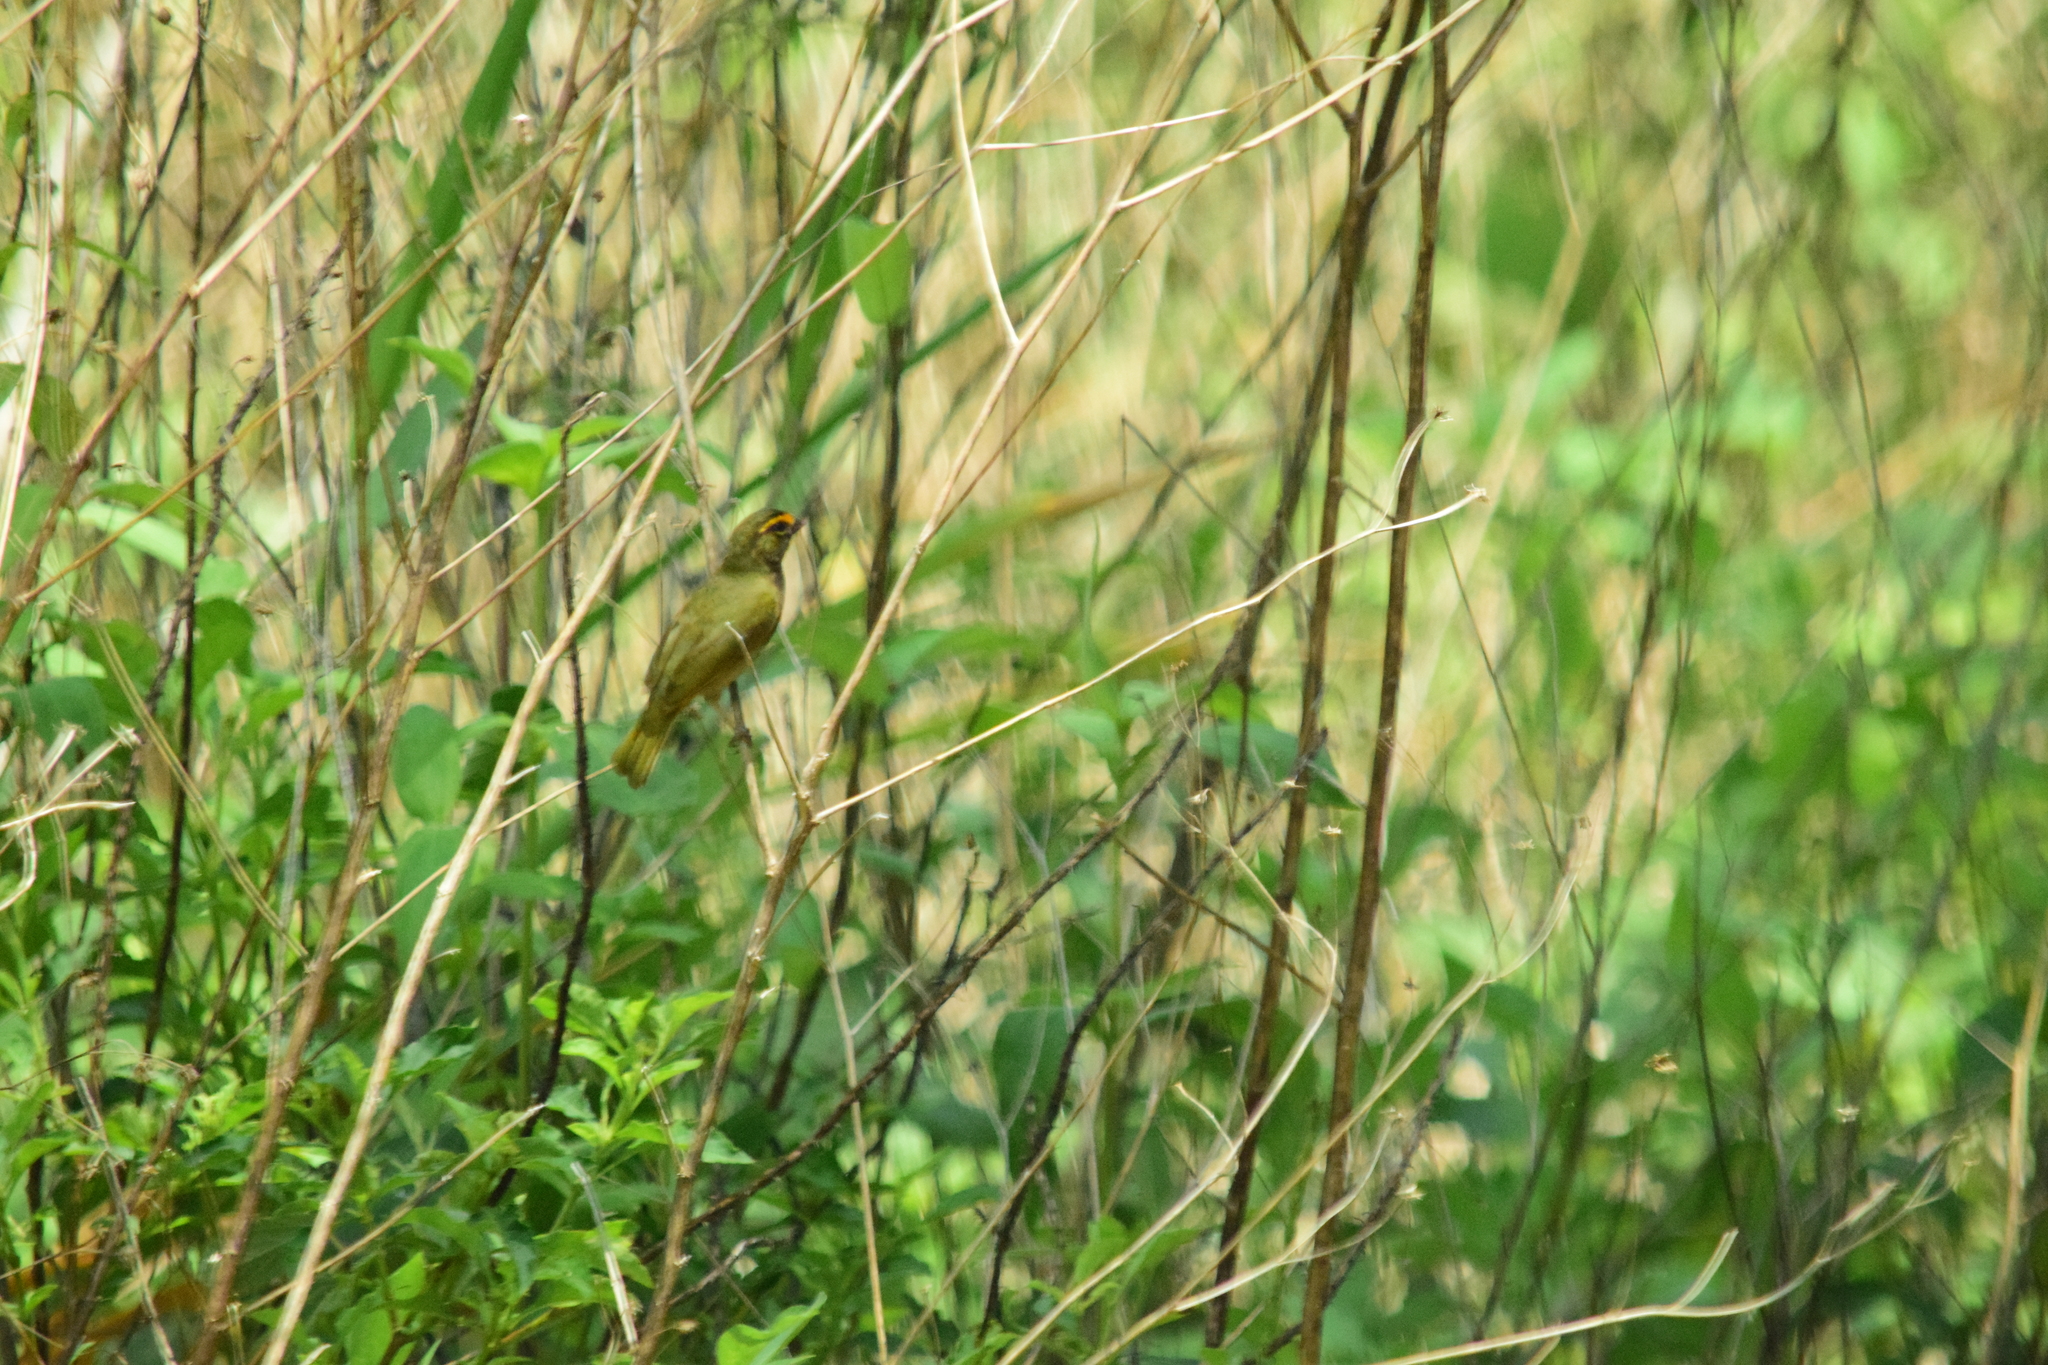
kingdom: Animalia
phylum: Chordata
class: Aves
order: Passeriformes
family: Thraupidae
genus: Tiaris
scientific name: Tiaris olivaceus
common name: Yellow-faced grassquit
